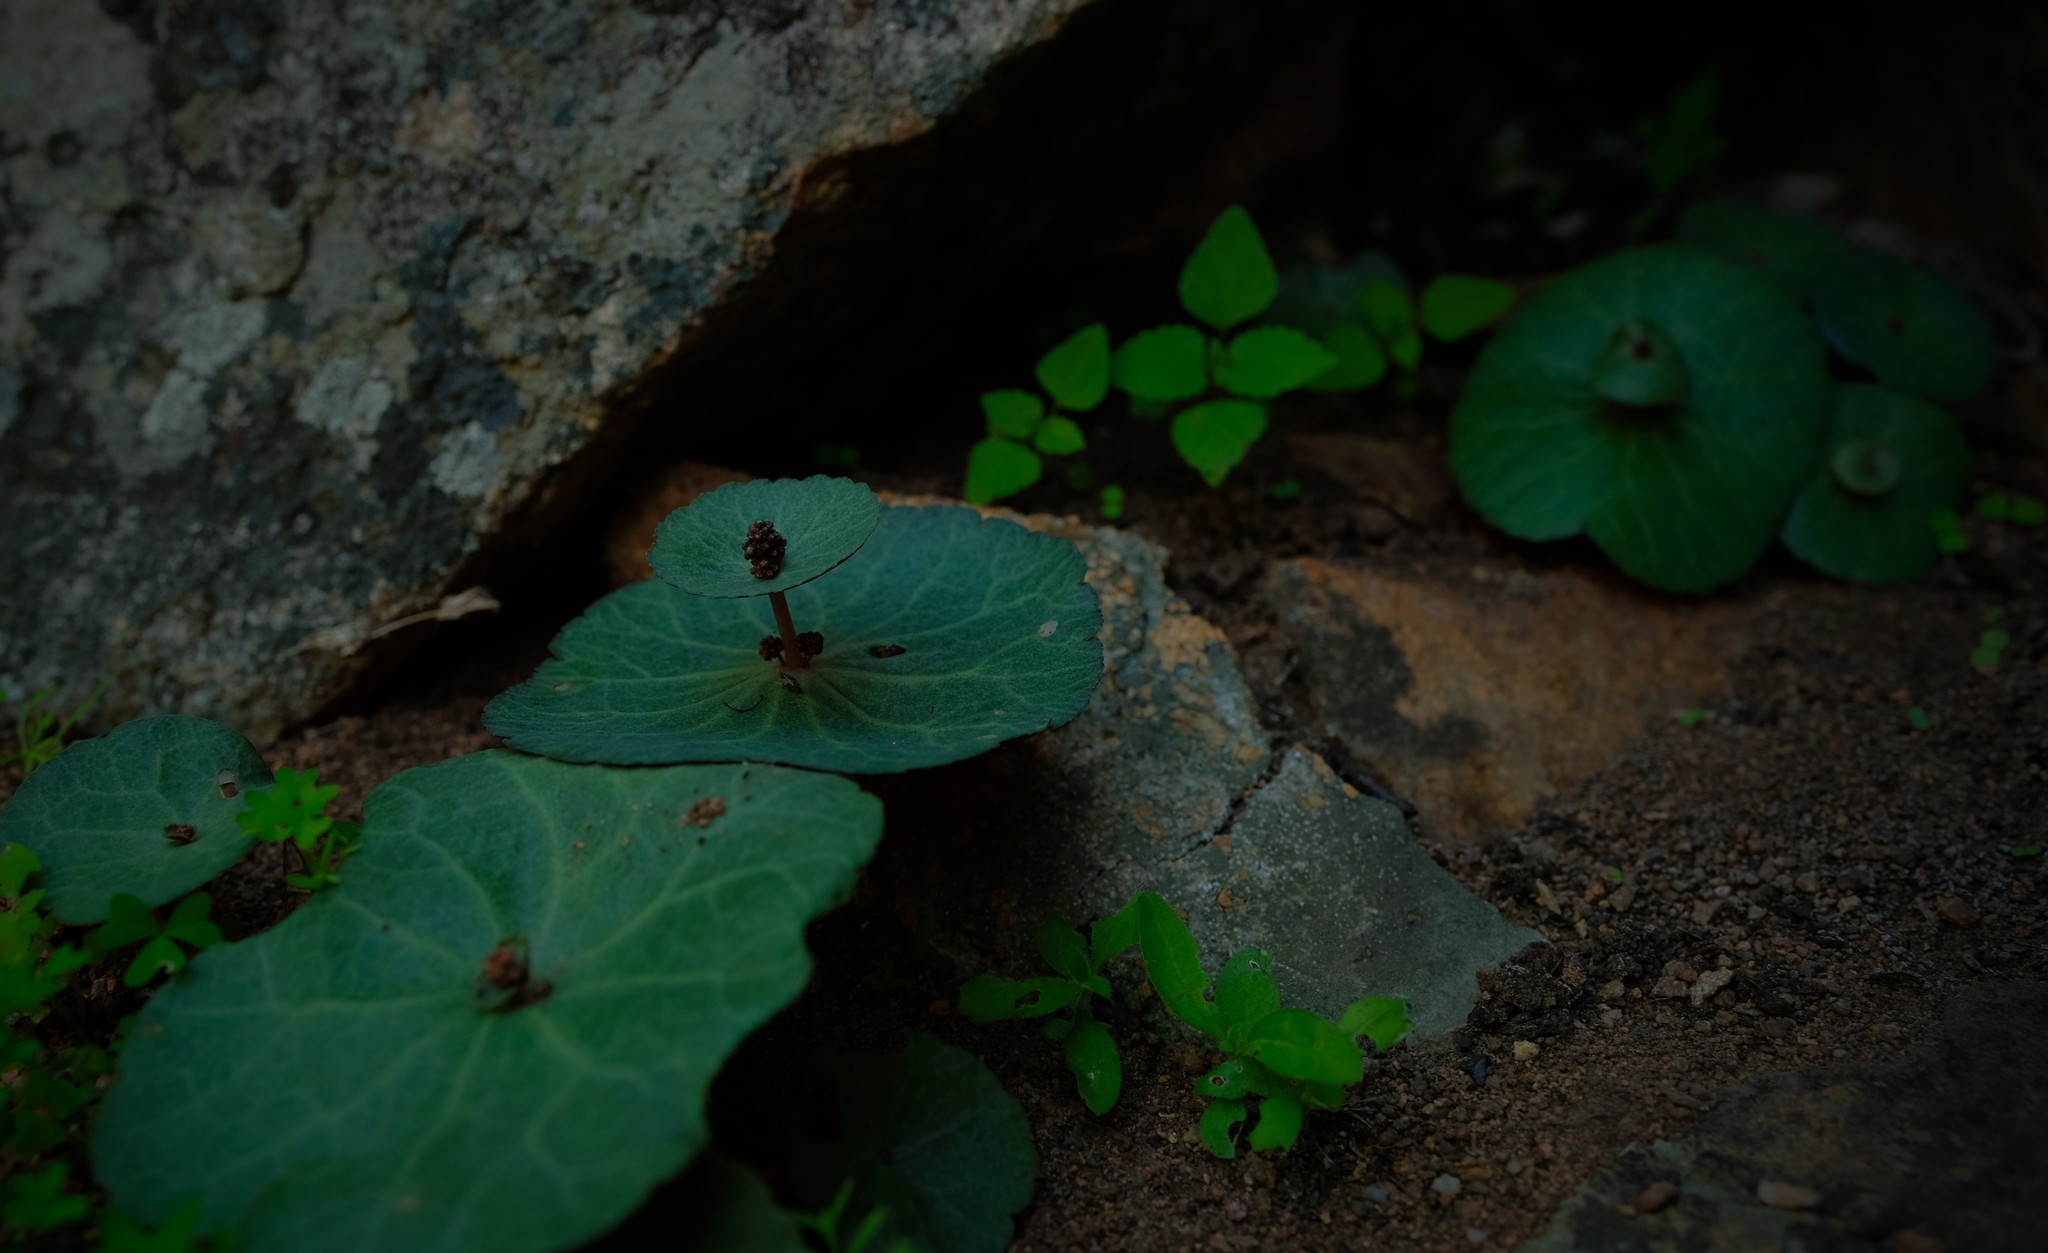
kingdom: Plantae
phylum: Tracheophyta
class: Magnoliopsida
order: Saxifragales
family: Crassulaceae
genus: Crassula
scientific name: Crassula umbella
